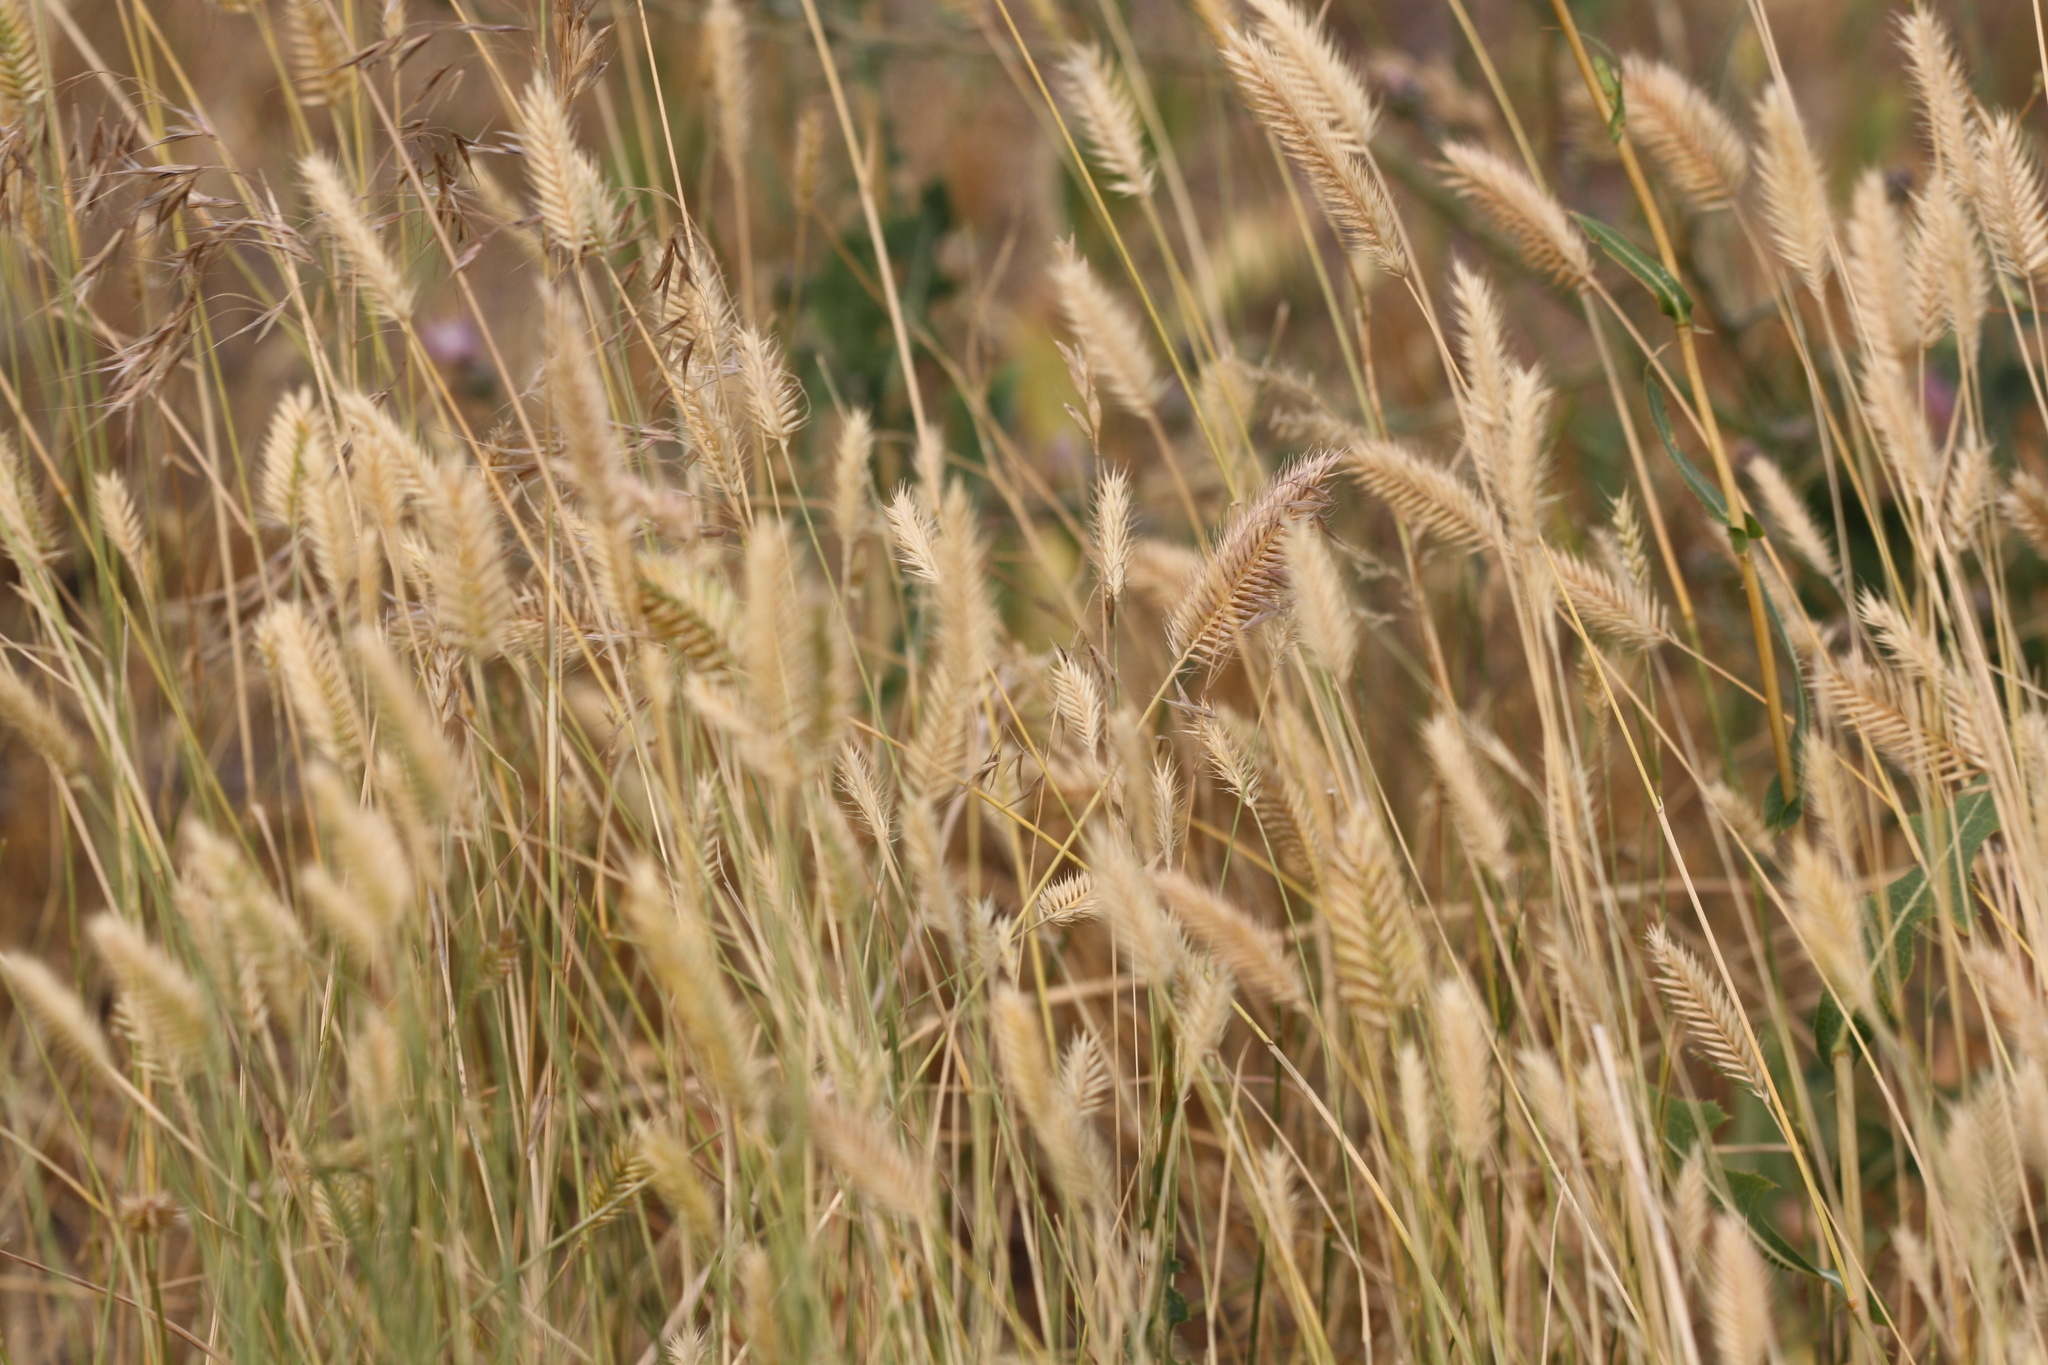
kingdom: Plantae
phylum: Tracheophyta
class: Liliopsida
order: Poales
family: Poaceae
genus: Agropyron
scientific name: Agropyron cristatum
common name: Crested wheatgrass
